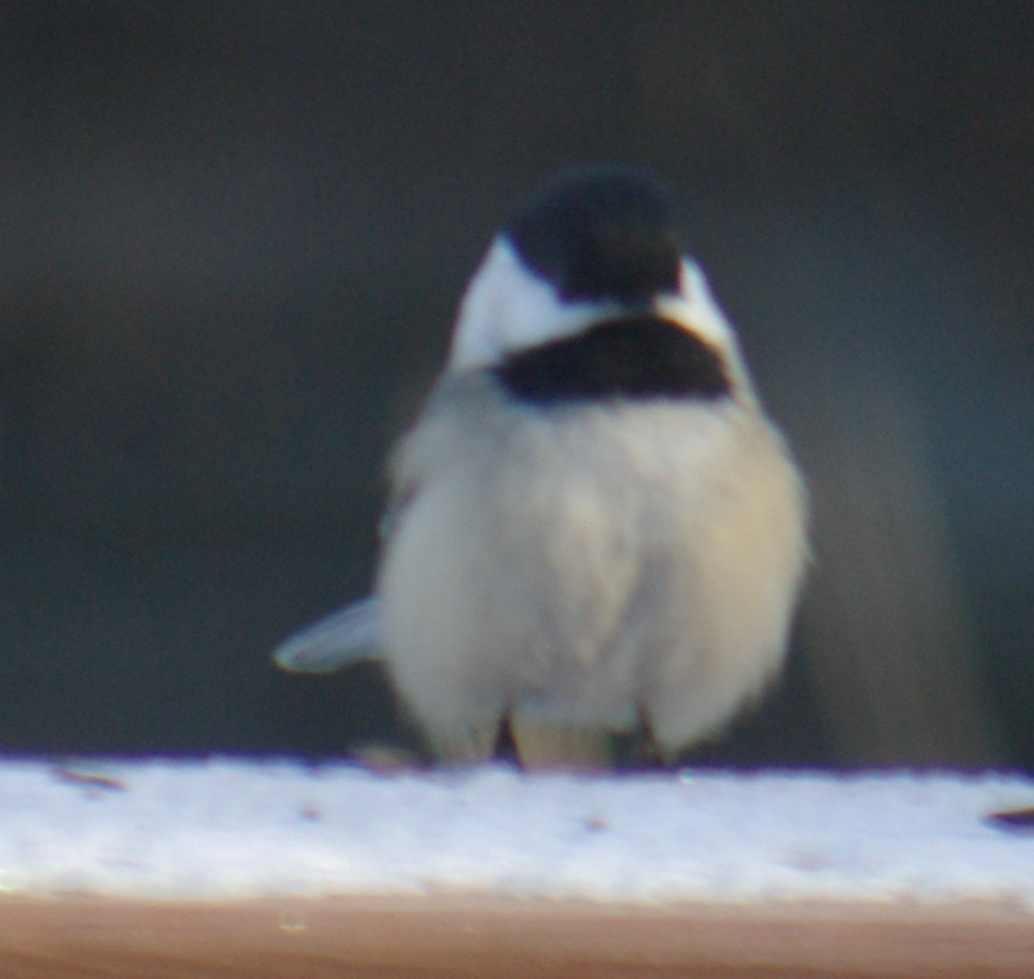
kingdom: Animalia
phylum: Chordata
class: Aves
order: Passeriformes
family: Paridae
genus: Poecile
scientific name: Poecile atricapillus
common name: Black-capped chickadee
